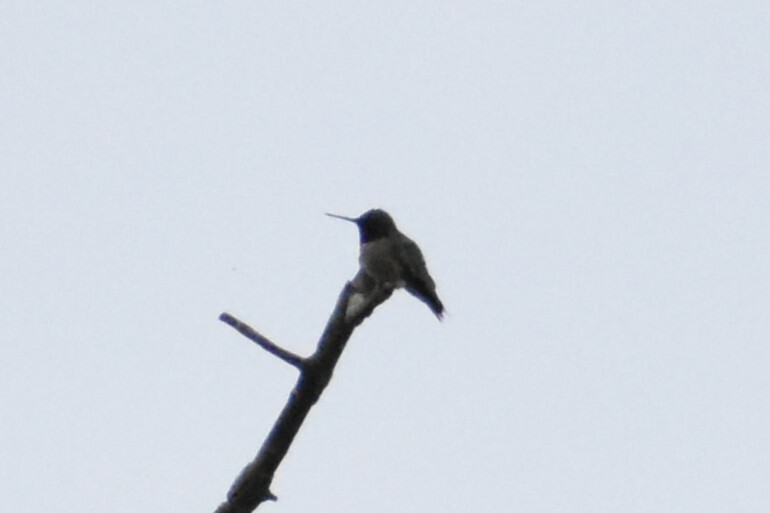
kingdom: Animalia
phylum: Chordata
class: Aves
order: Apodiformes
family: Trochilidae
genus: Archilochus
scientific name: Archilochus colubris
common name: Ruby-throated hummingbird
